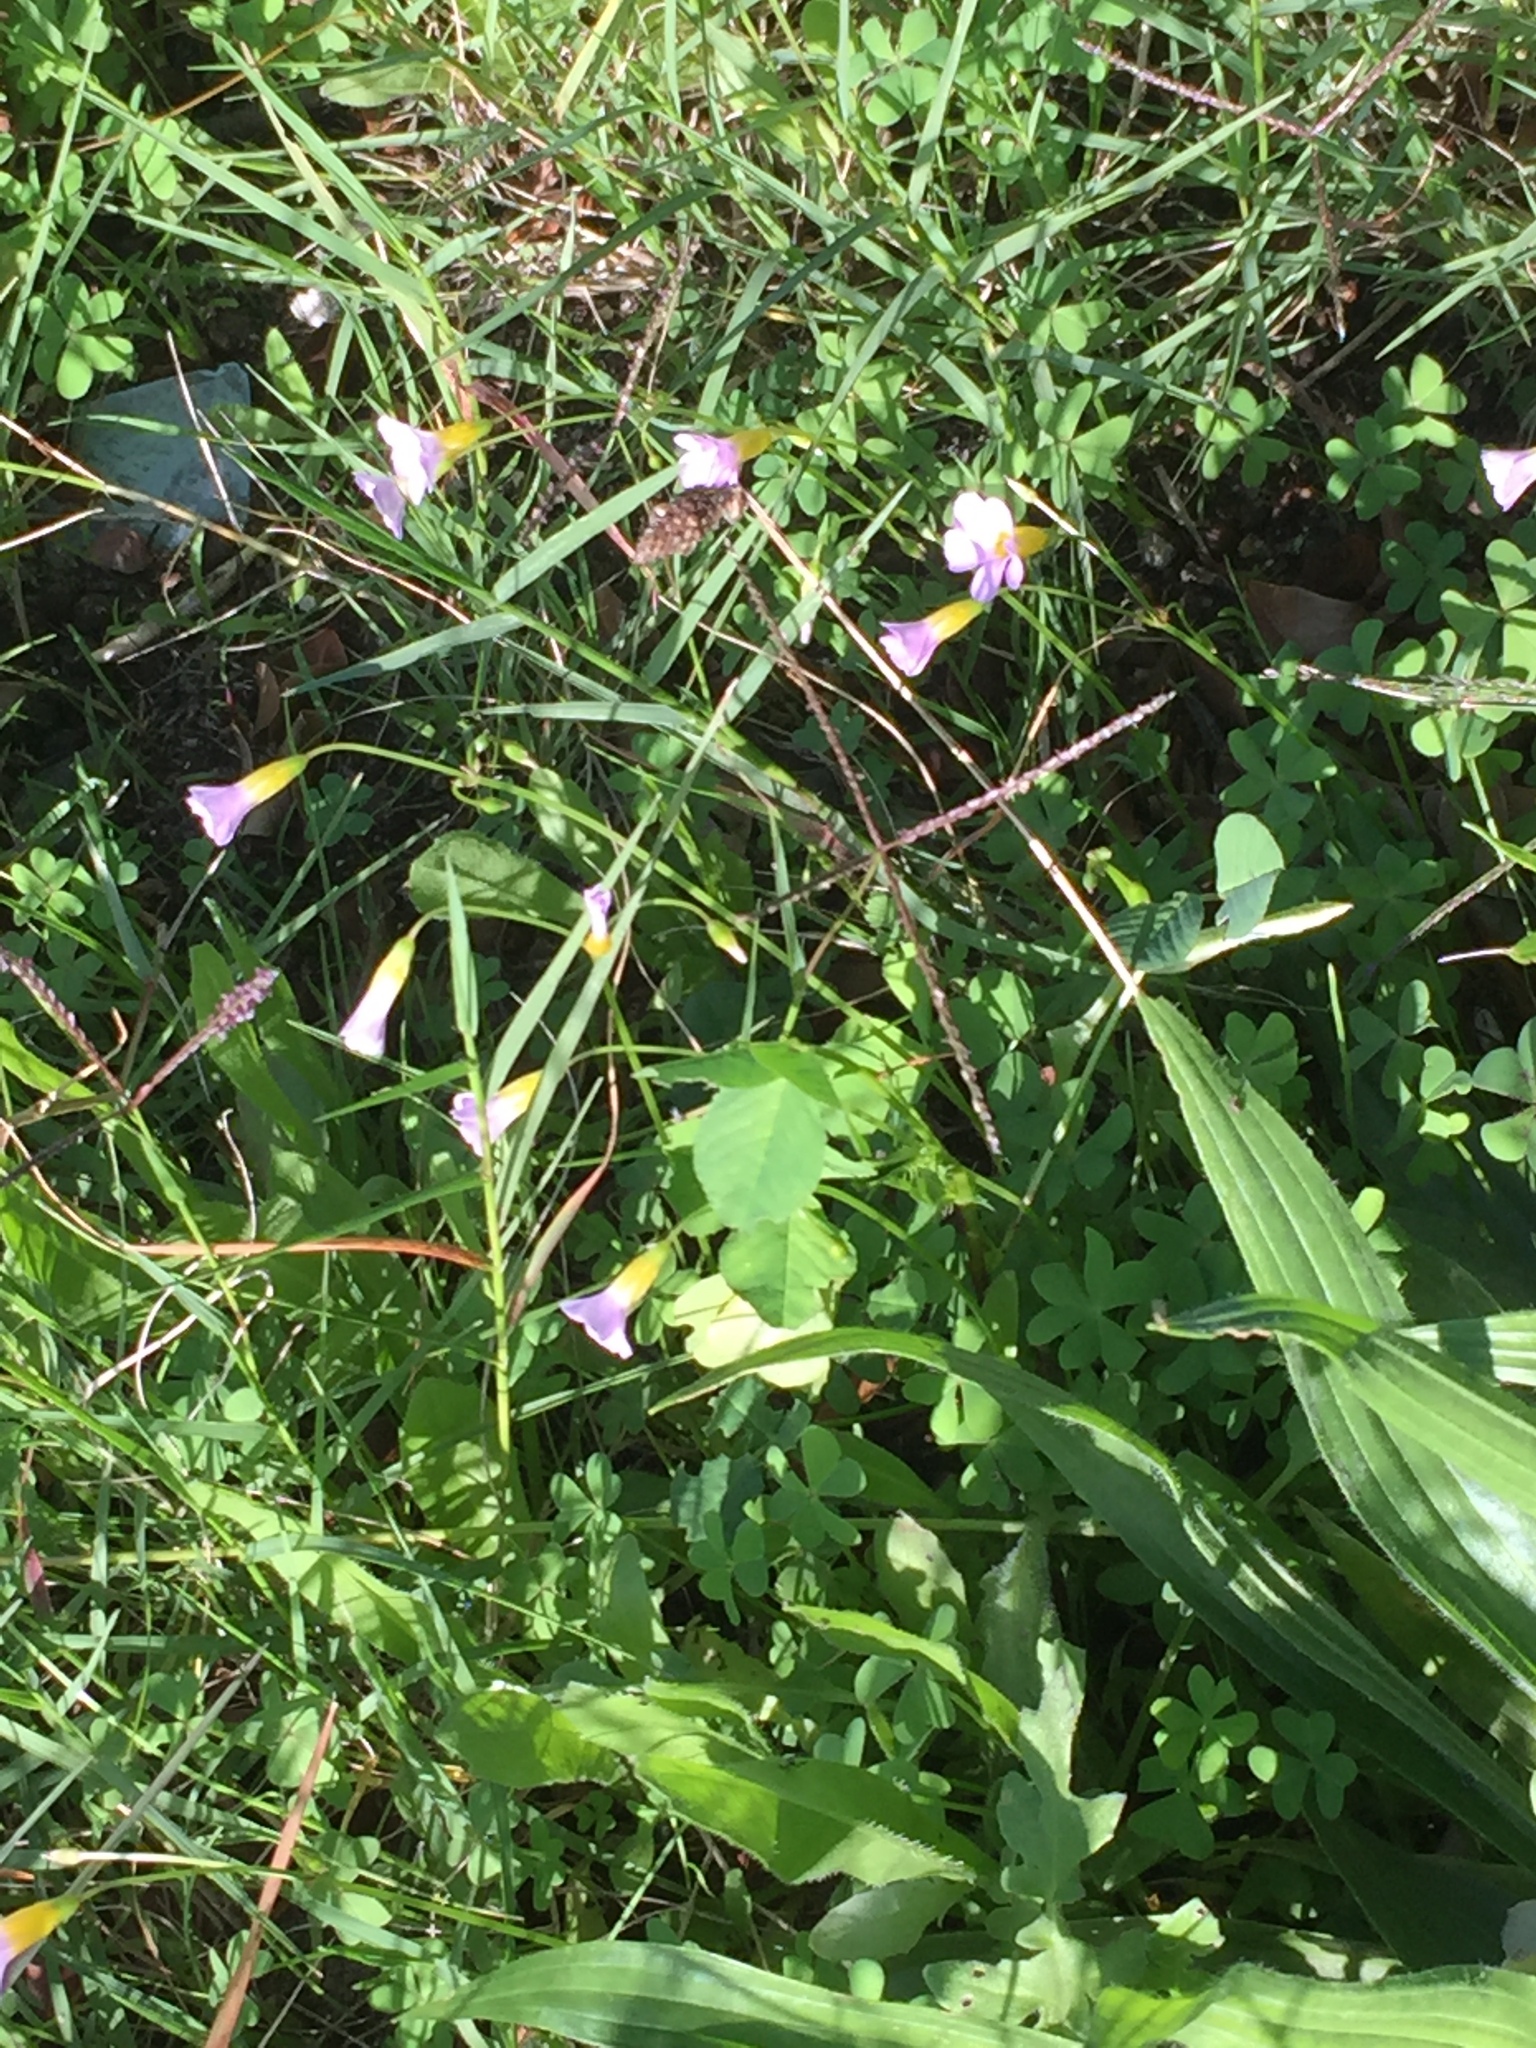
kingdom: Plantae
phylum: Tracheophyta
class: Magnoliopsida
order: Oxalidales
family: Oxalidaceae
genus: Oxalis
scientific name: Oxalis caprina
